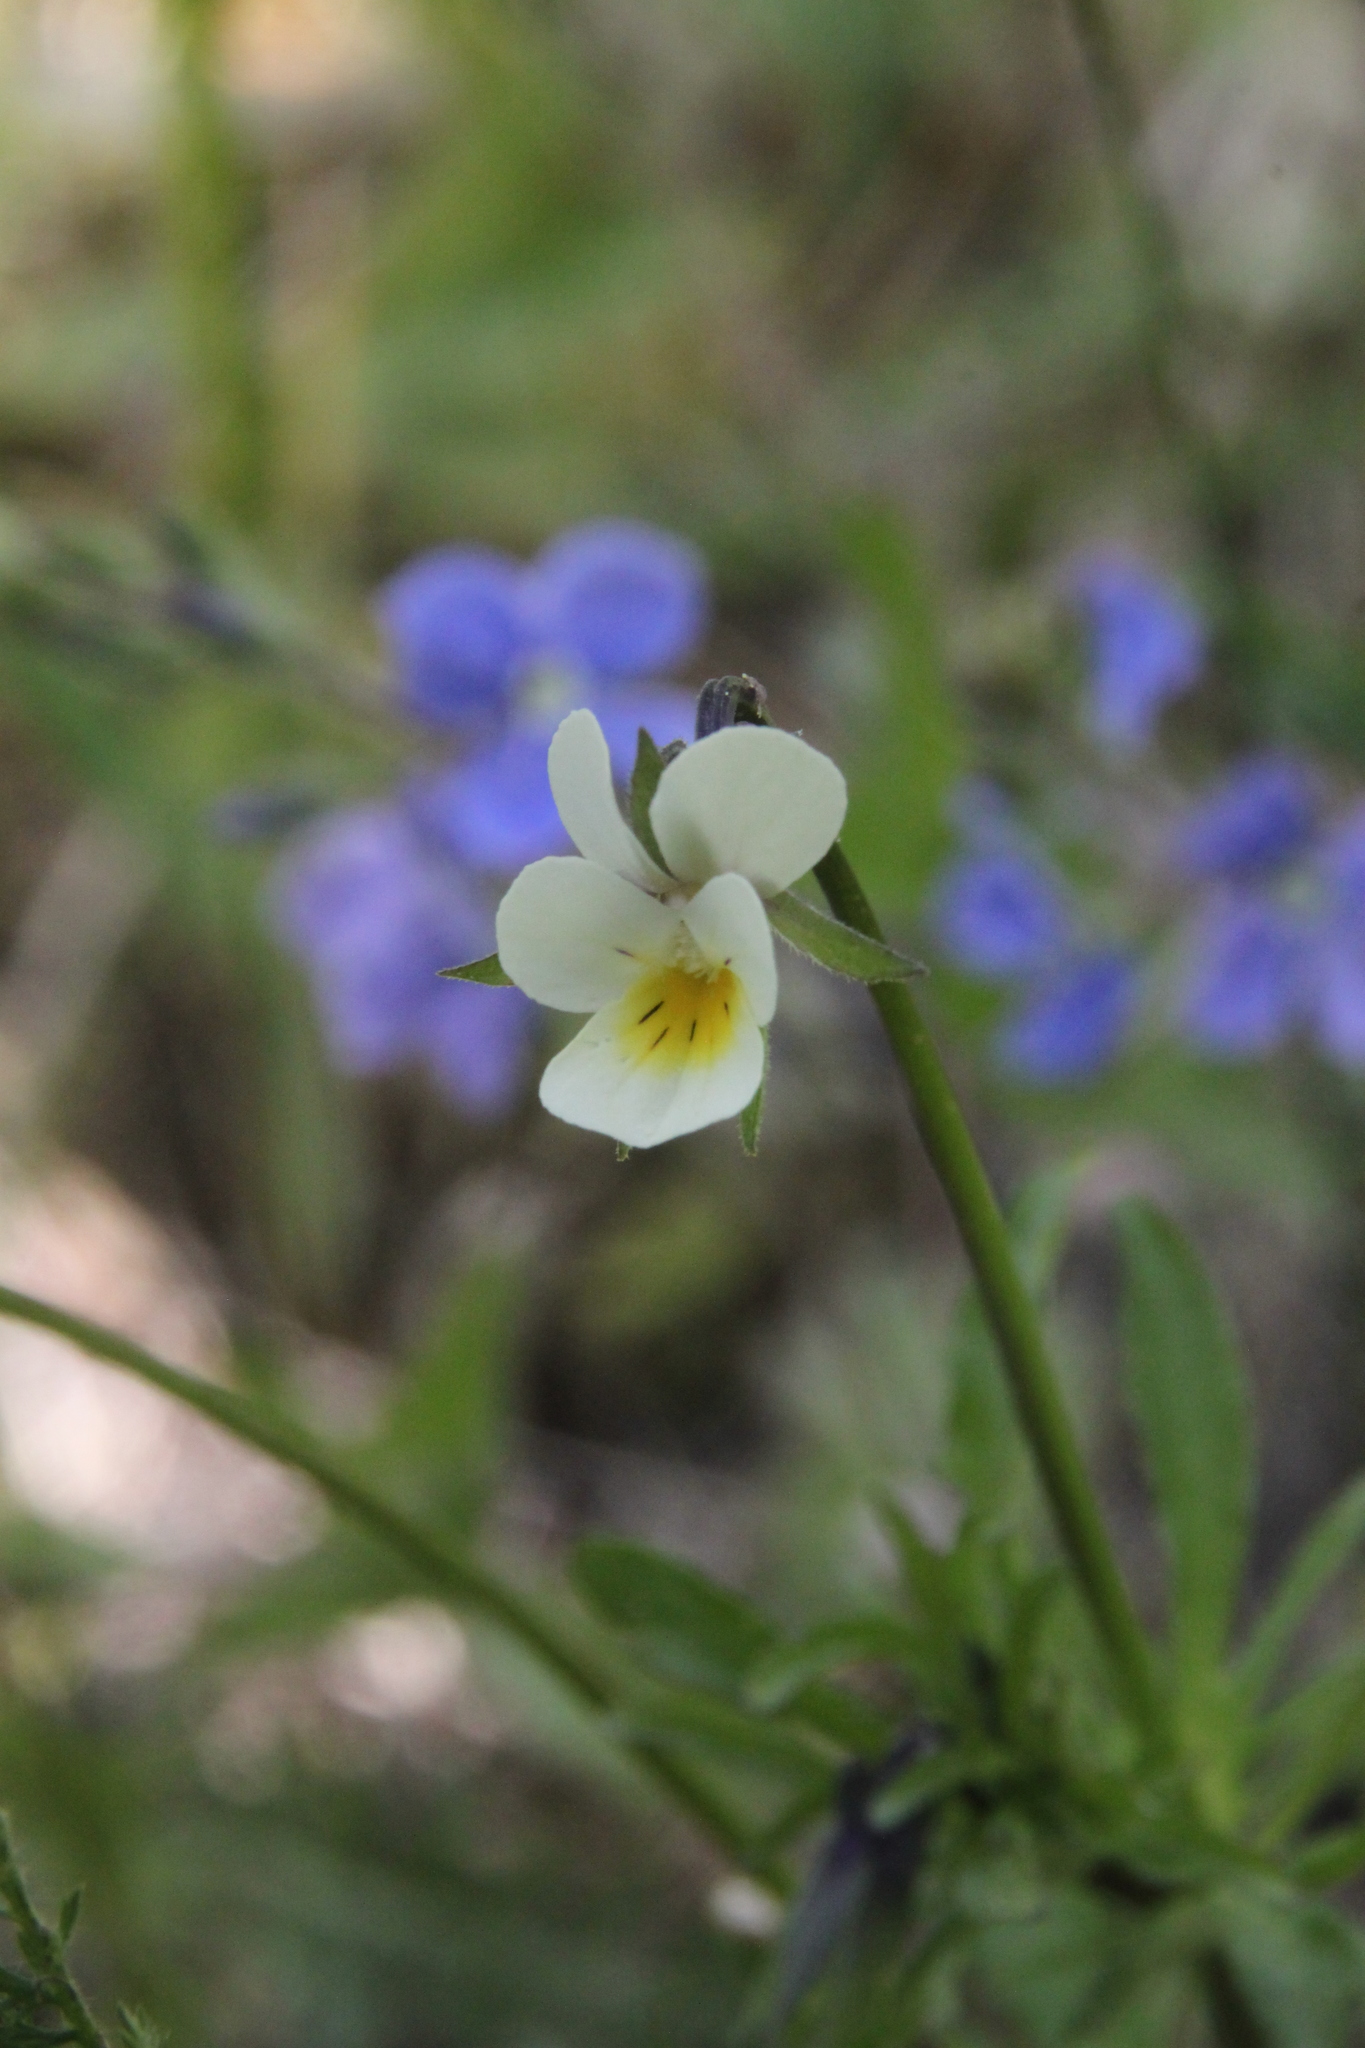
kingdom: Plantae
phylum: Tracheophyta
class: Magnoliopsida
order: Malpighiales
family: Violaceae
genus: Viola
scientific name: Viola arvensis
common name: Field pansy
